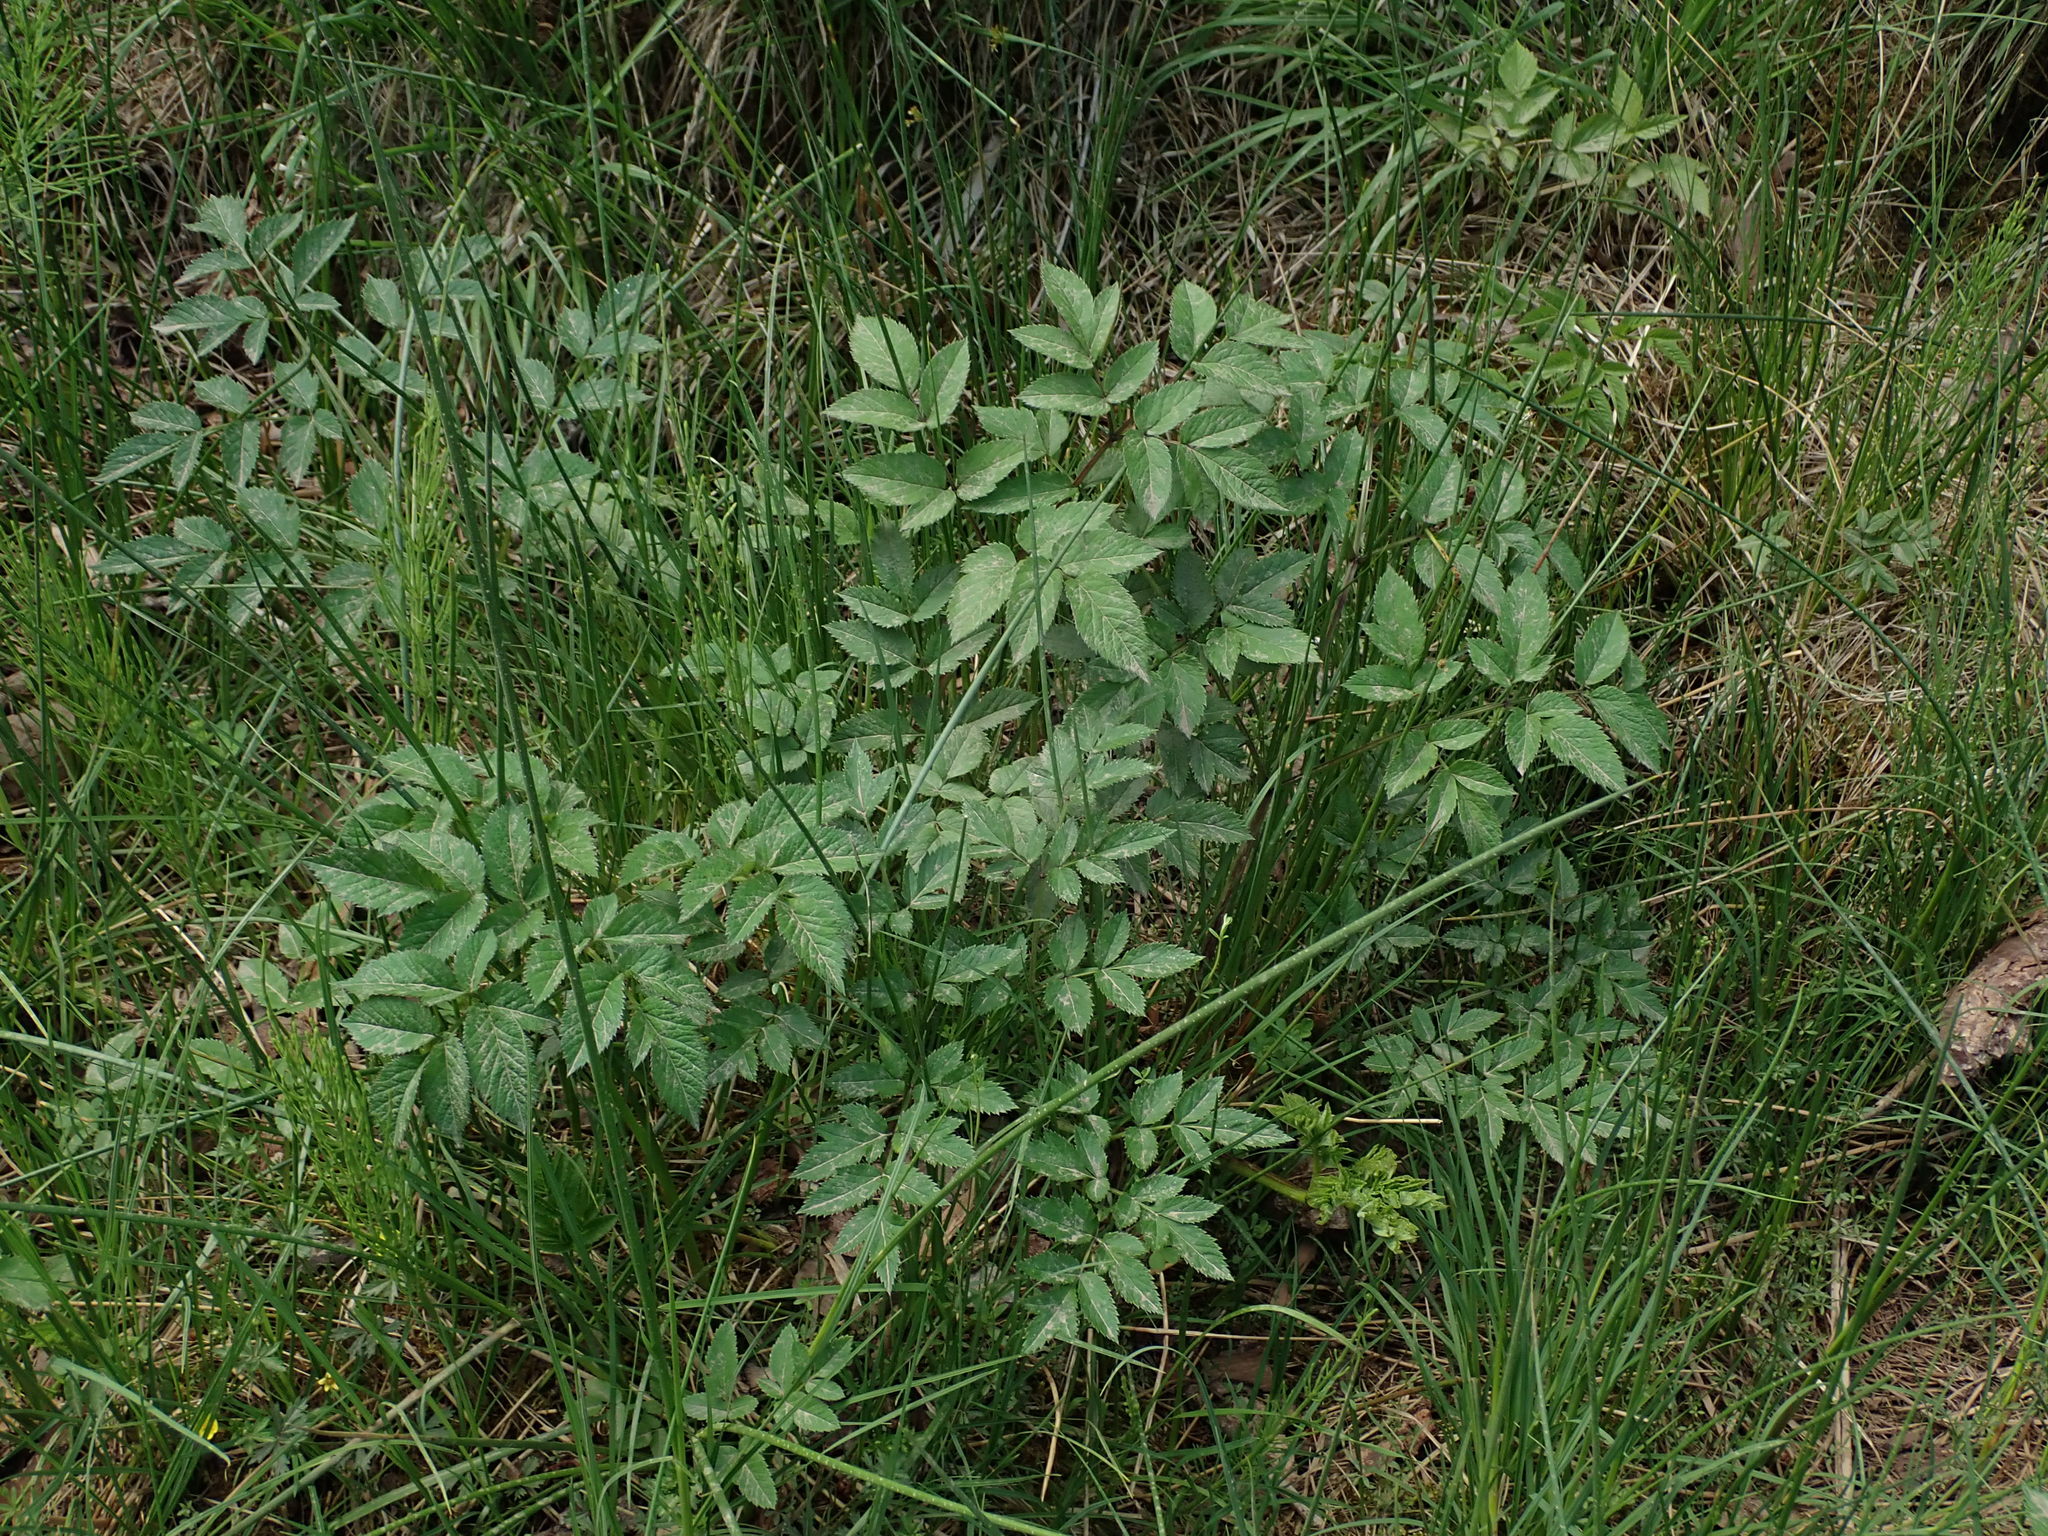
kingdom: Plantae
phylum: Tracheophyta
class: Magnoliopsida
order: Apiales
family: Apiaceae
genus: Angelica
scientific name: Angelica sylvestris
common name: Wild angelica
